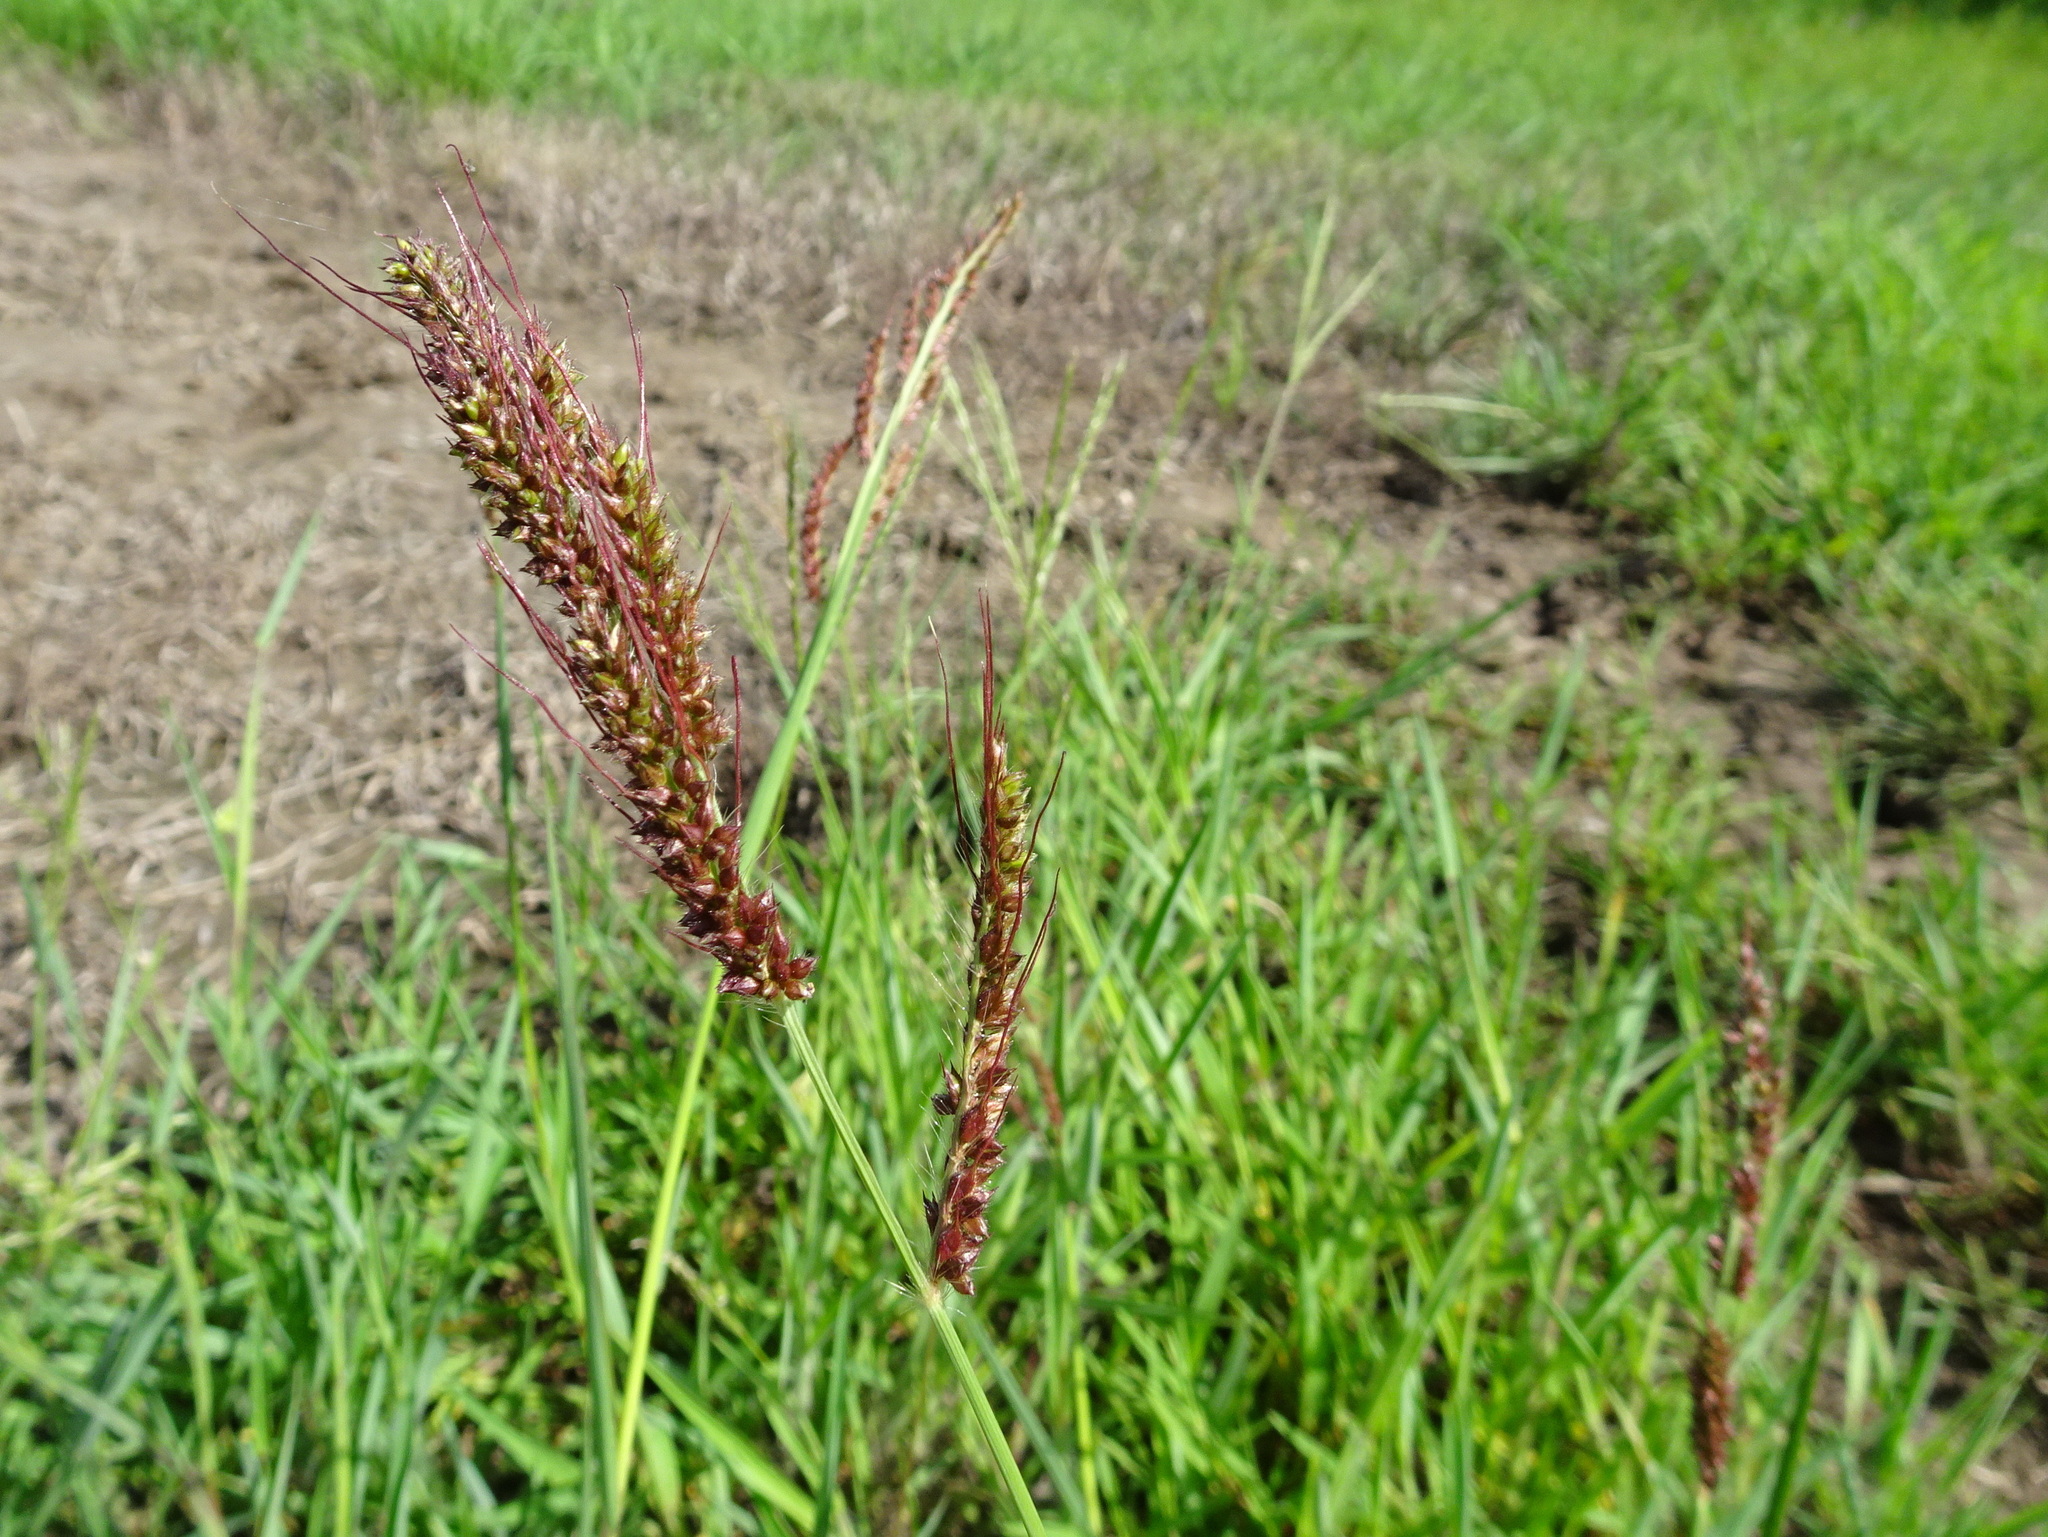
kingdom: Plantae
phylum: Tracheophyta
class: Liliopsida
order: Poales
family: Poaceae
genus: Echinochloa
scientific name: Echinochloa
